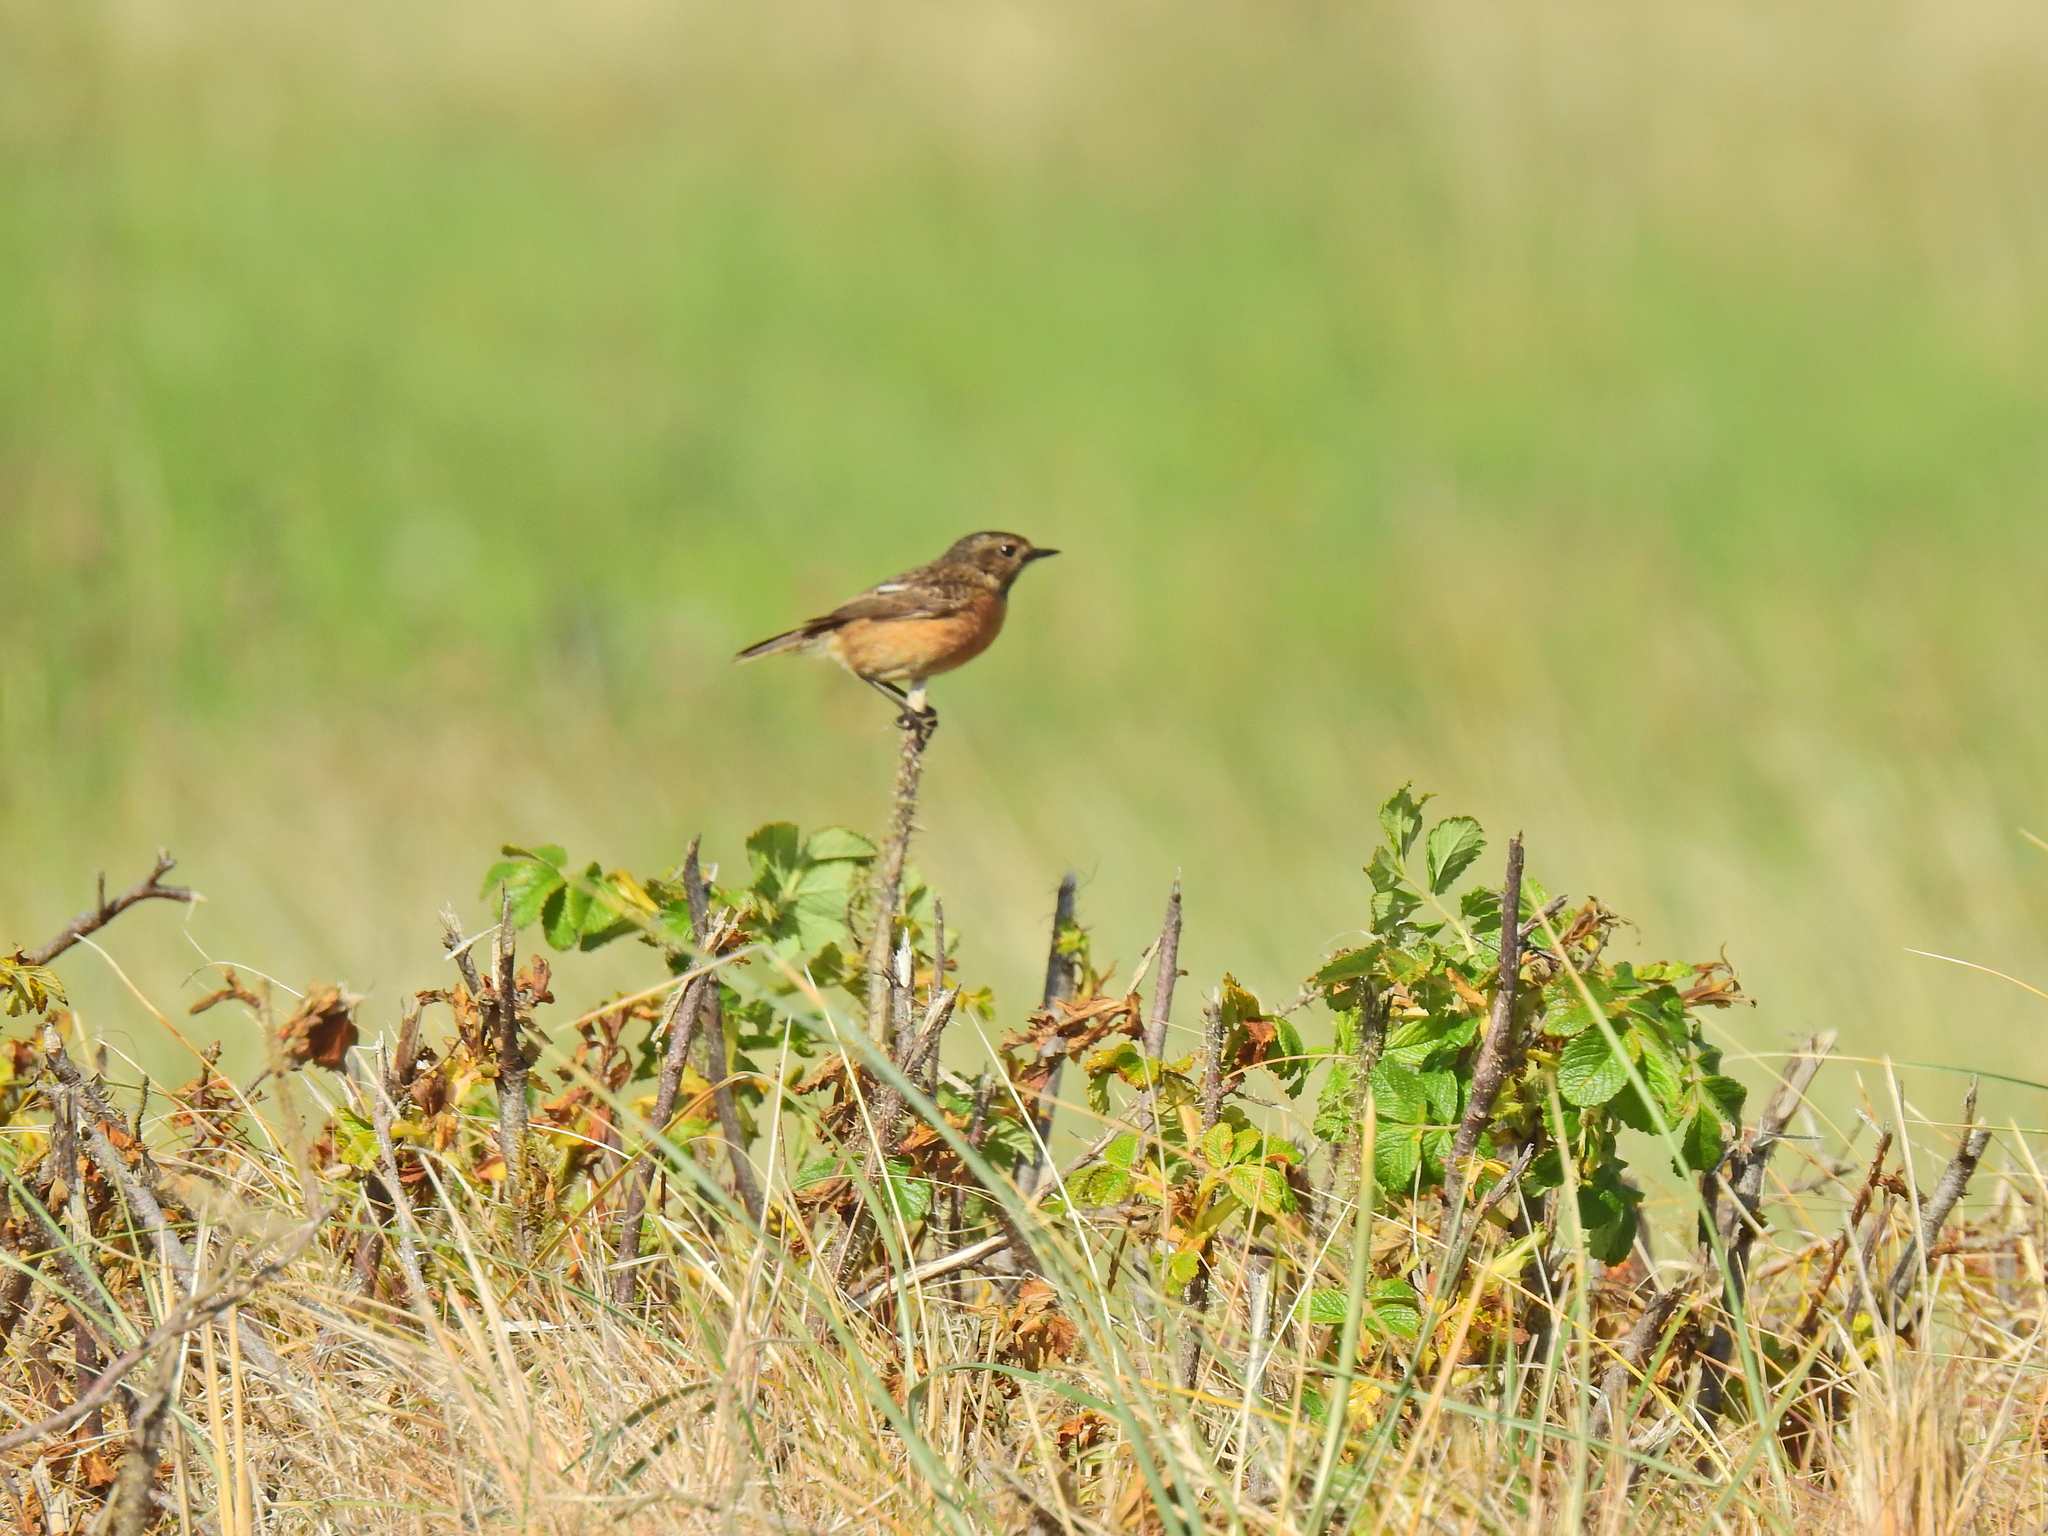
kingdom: Animalia
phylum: Chordata
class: Aves
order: Passeriformes
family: Muscicapidae
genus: Saxicola
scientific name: Saxicola rubicola
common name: European stonechat
